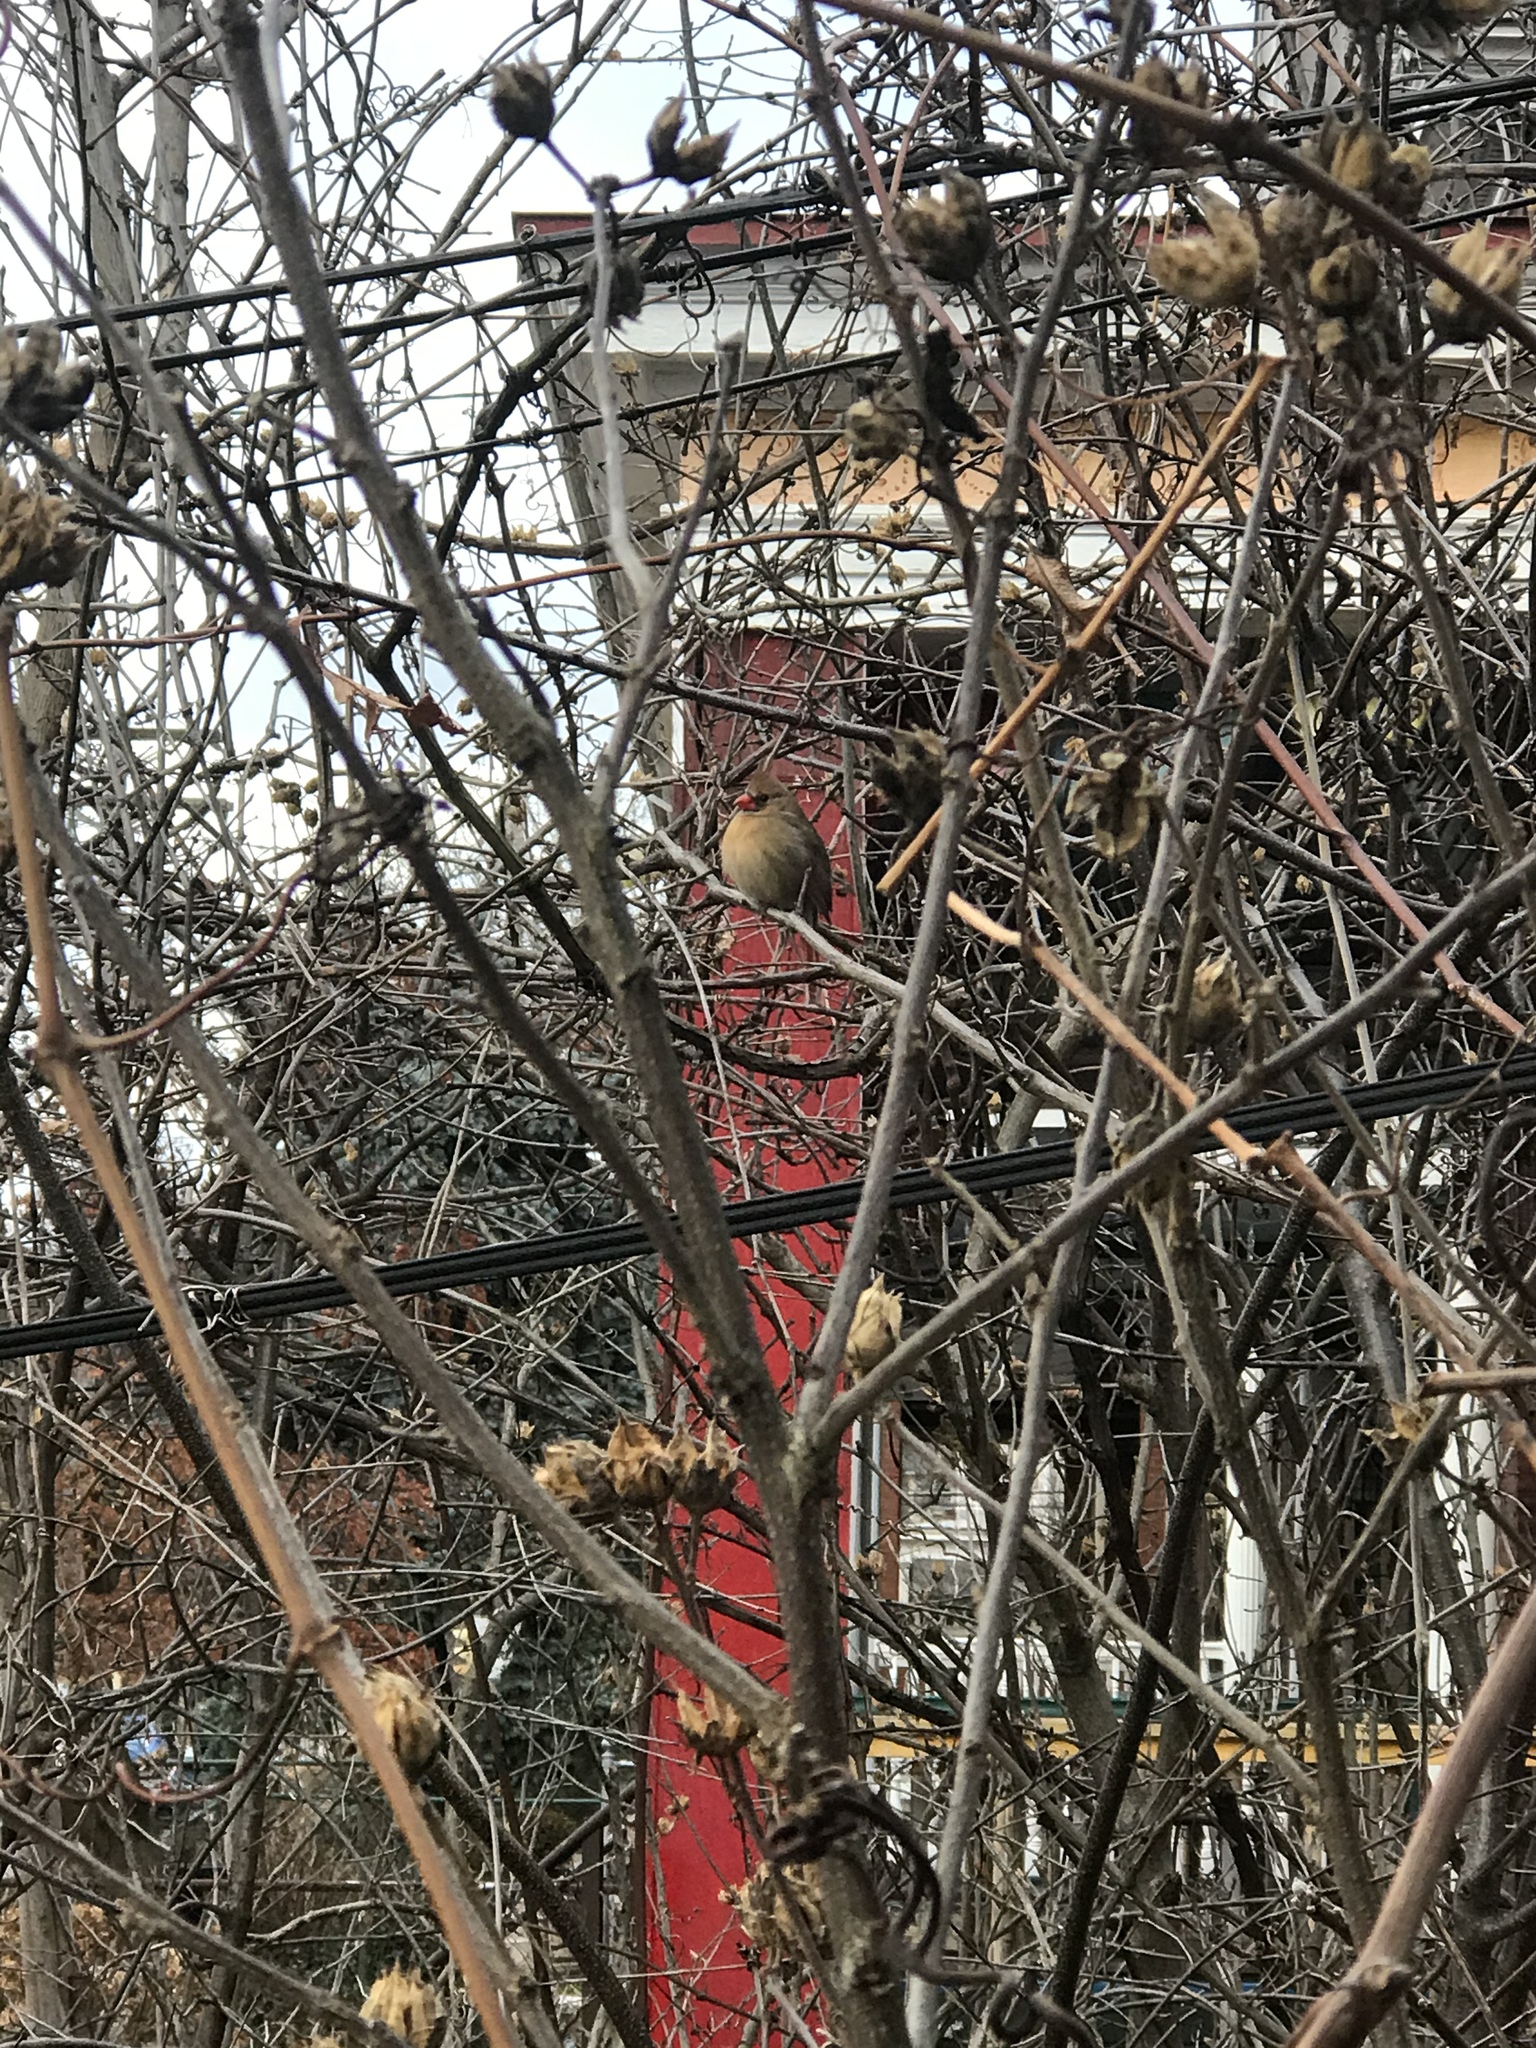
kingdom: Animalia
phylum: Chordata
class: Aves
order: Passeriformes
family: Cardinalidae
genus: Cardinalis
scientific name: Cardinalis cardinalis
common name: Northern cardinal
